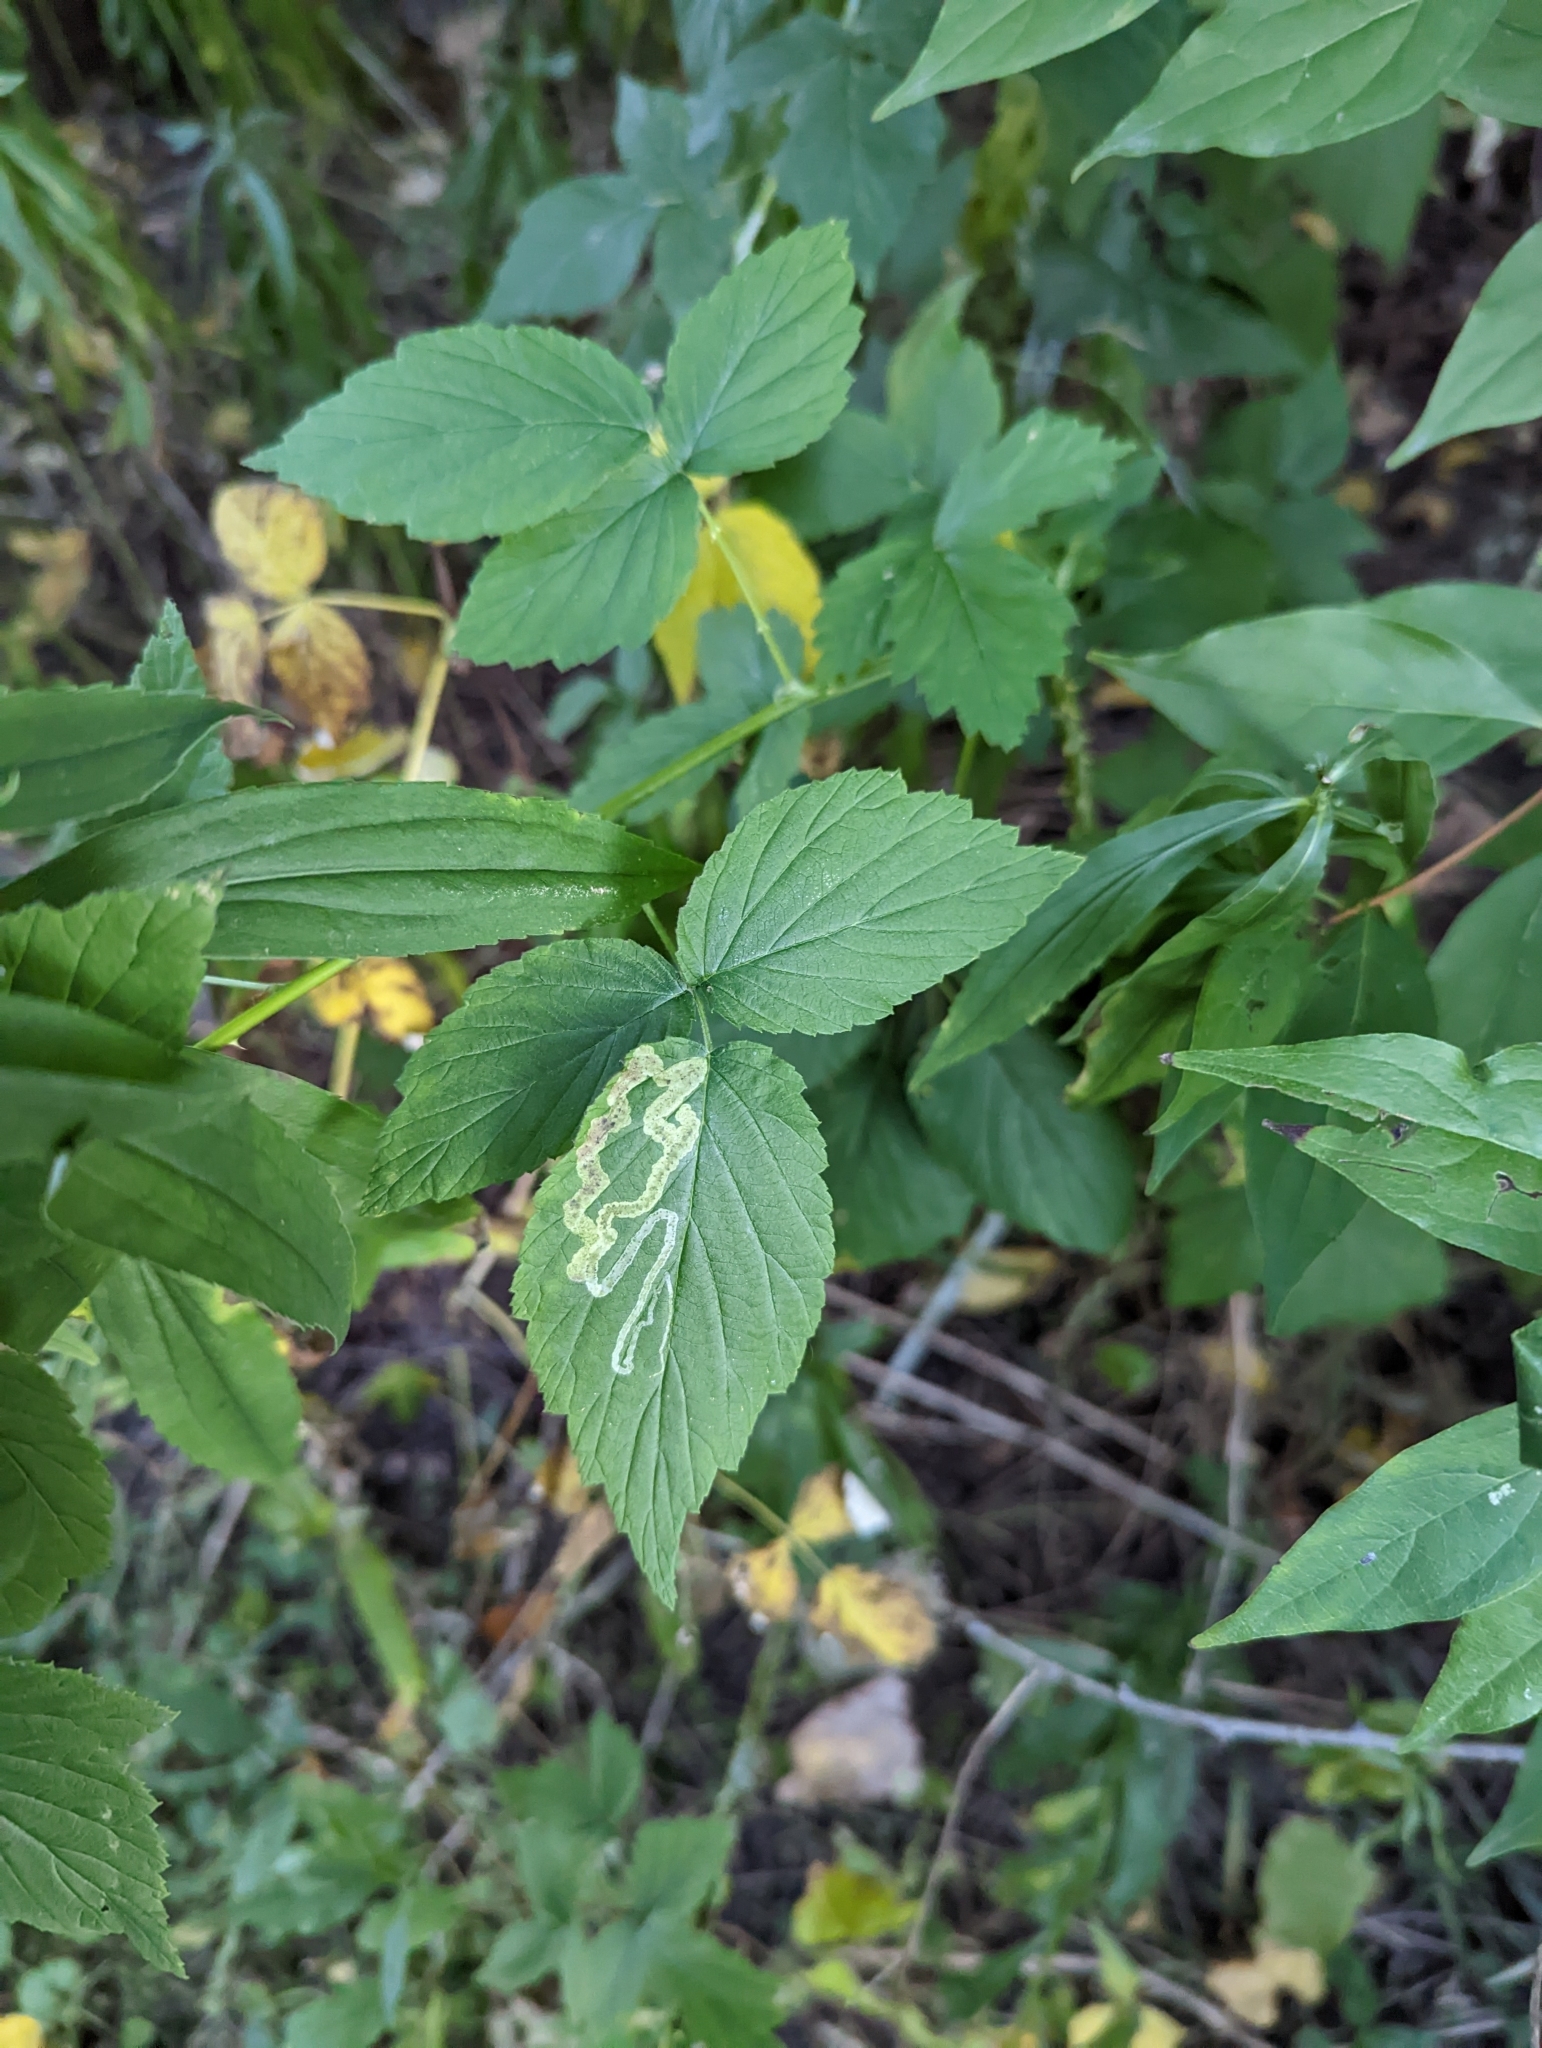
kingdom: Plantae
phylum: Tracheophyta
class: Magnoliopsida
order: Rosales
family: Rosaceae
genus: Rubus
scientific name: Rubus occidentalis
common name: Black raspberry
